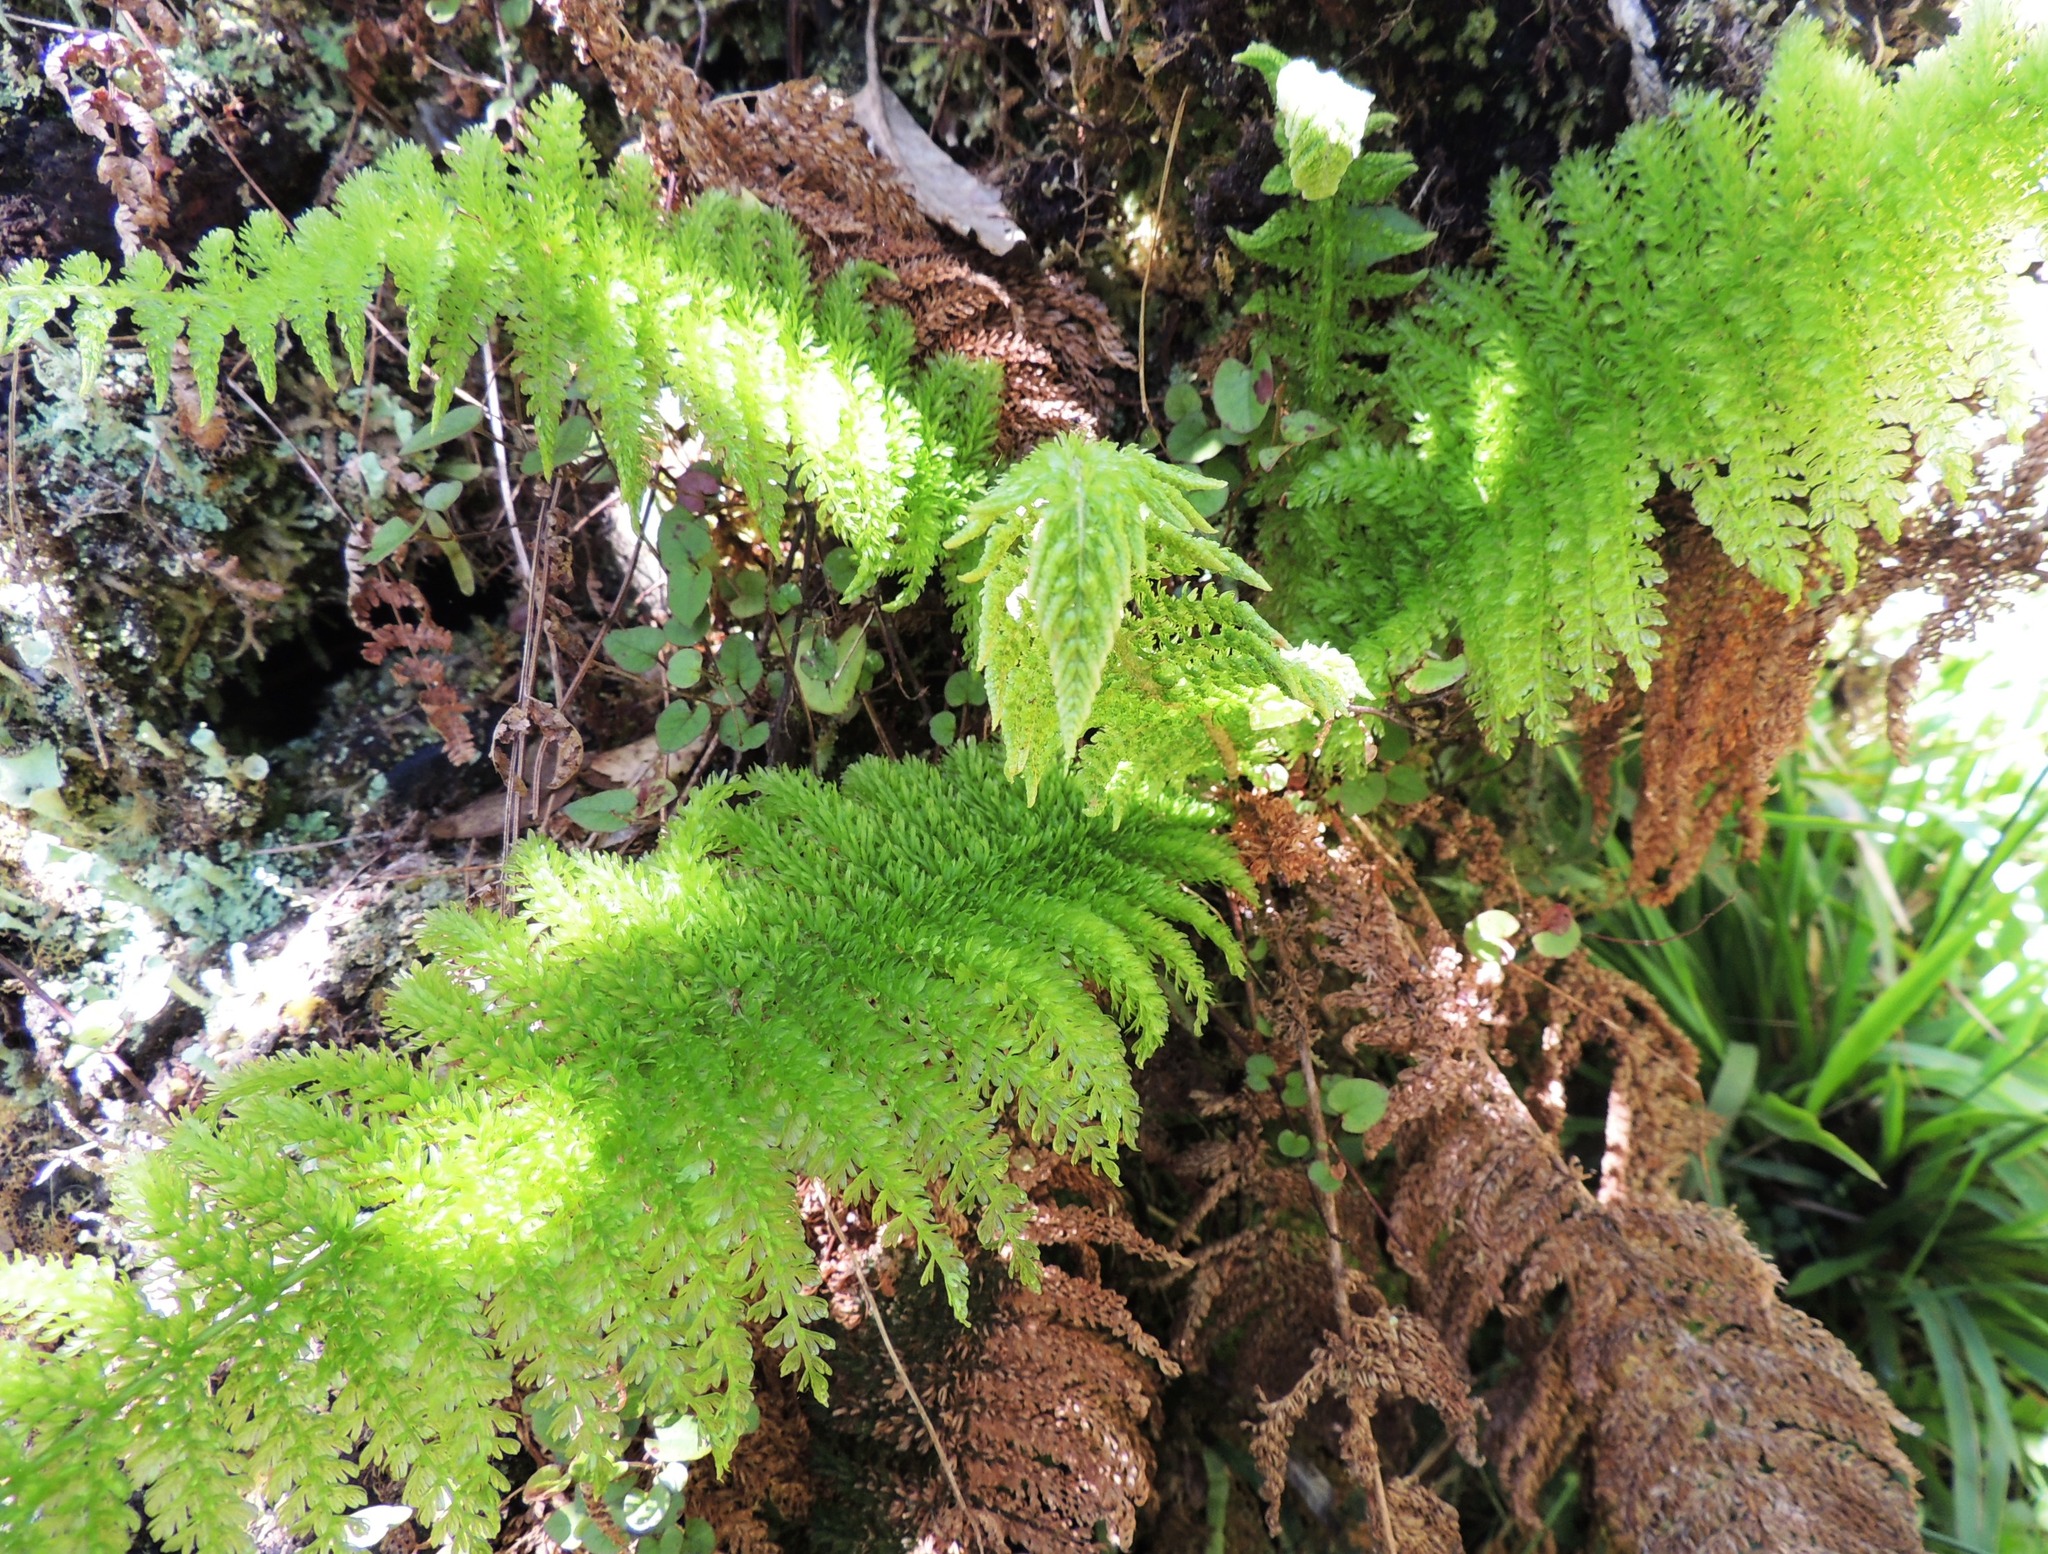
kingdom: Plantae
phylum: Tracheophyta
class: Polypodiopsida
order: Osmundales
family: Osmundaceae
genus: Leptopteris
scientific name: Leptopteris superba
